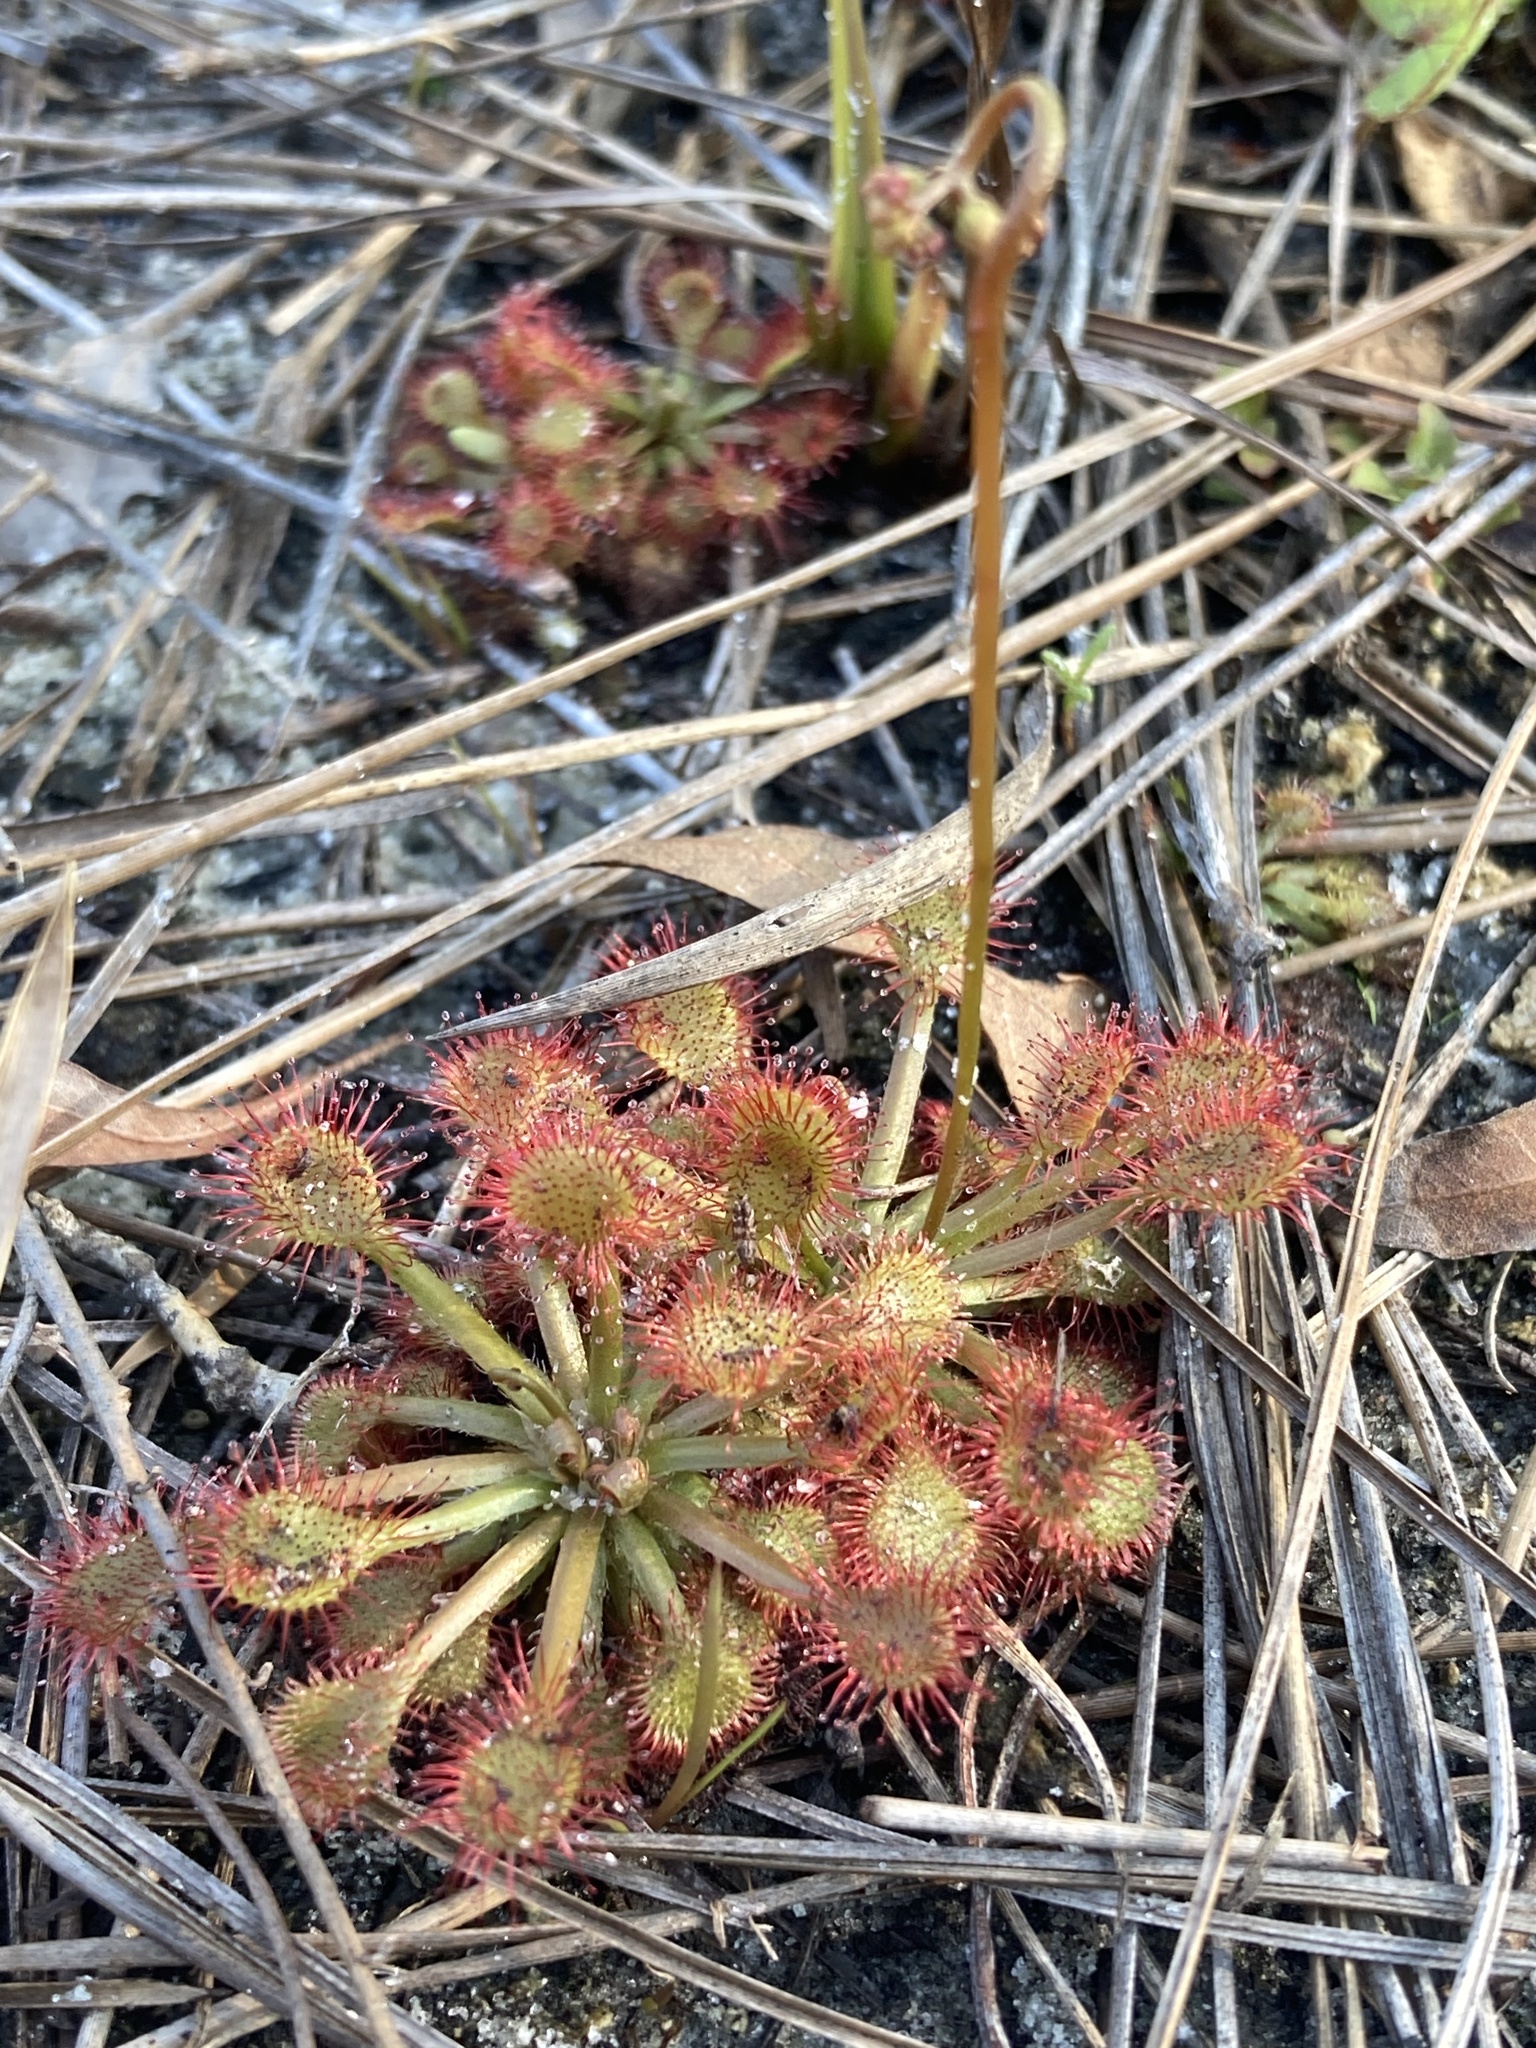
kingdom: Plantae
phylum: Tracheophyta
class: Magnoliopsida
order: Caryophyllales
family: Droseraceae
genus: Drosera
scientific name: Drosera capillaris
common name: Pink sundew
